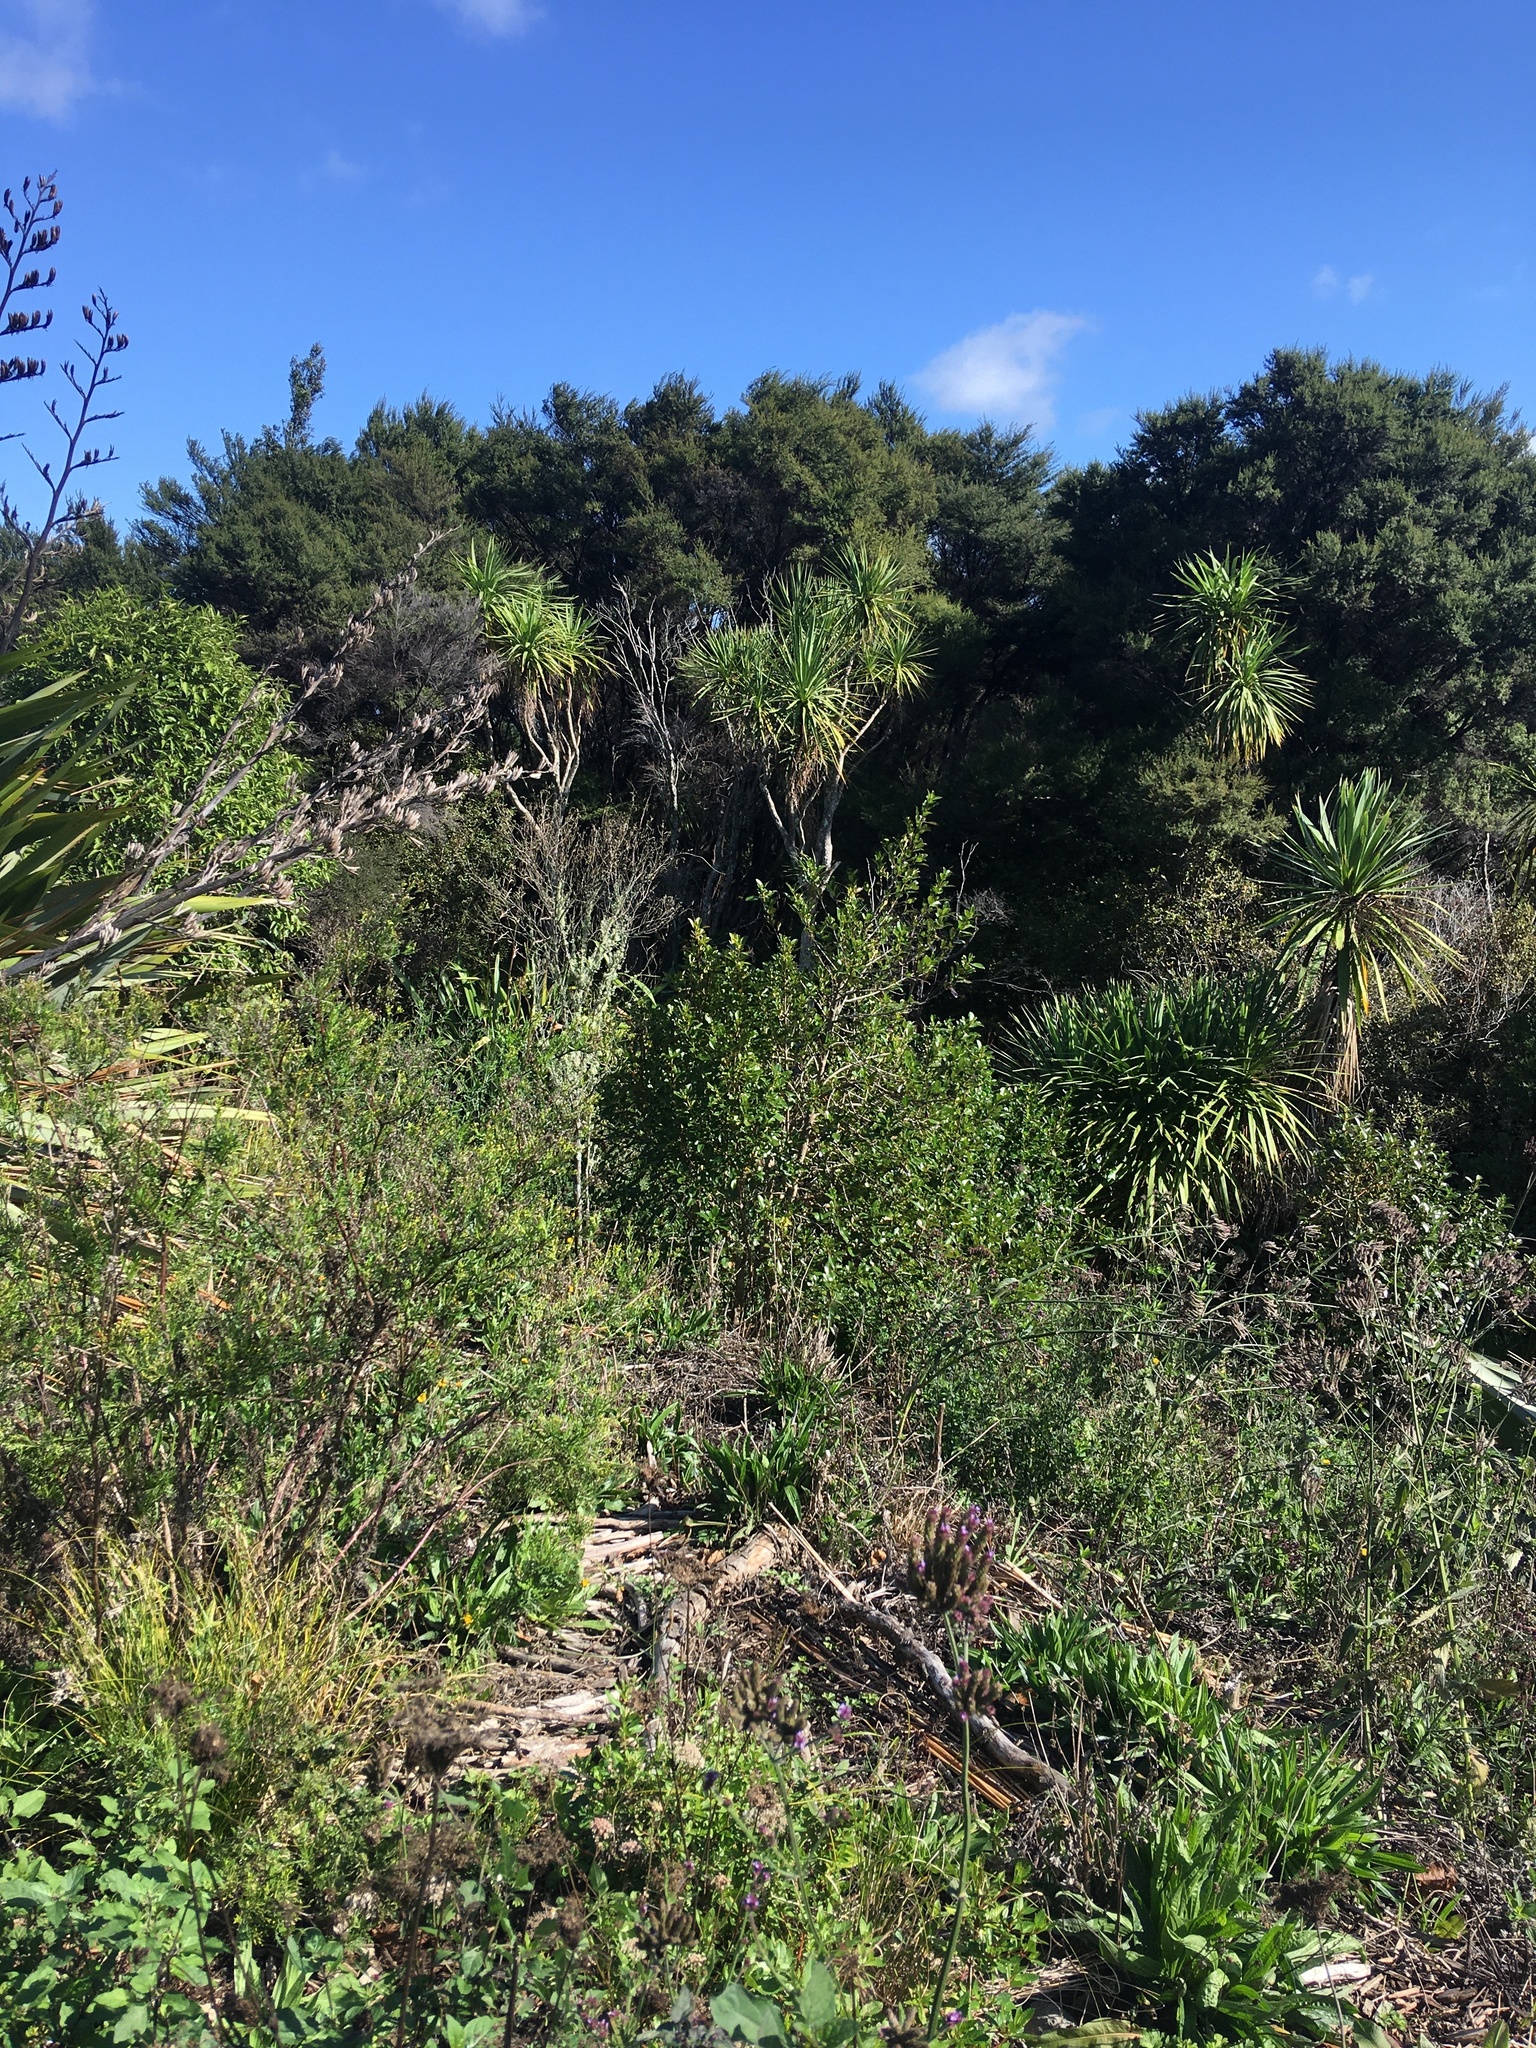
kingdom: Plantae
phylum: Tracheophyta
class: Magnoliopsida
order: Gentianales
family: Rubiaceae
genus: Coprosma
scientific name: Coprosma robusta
